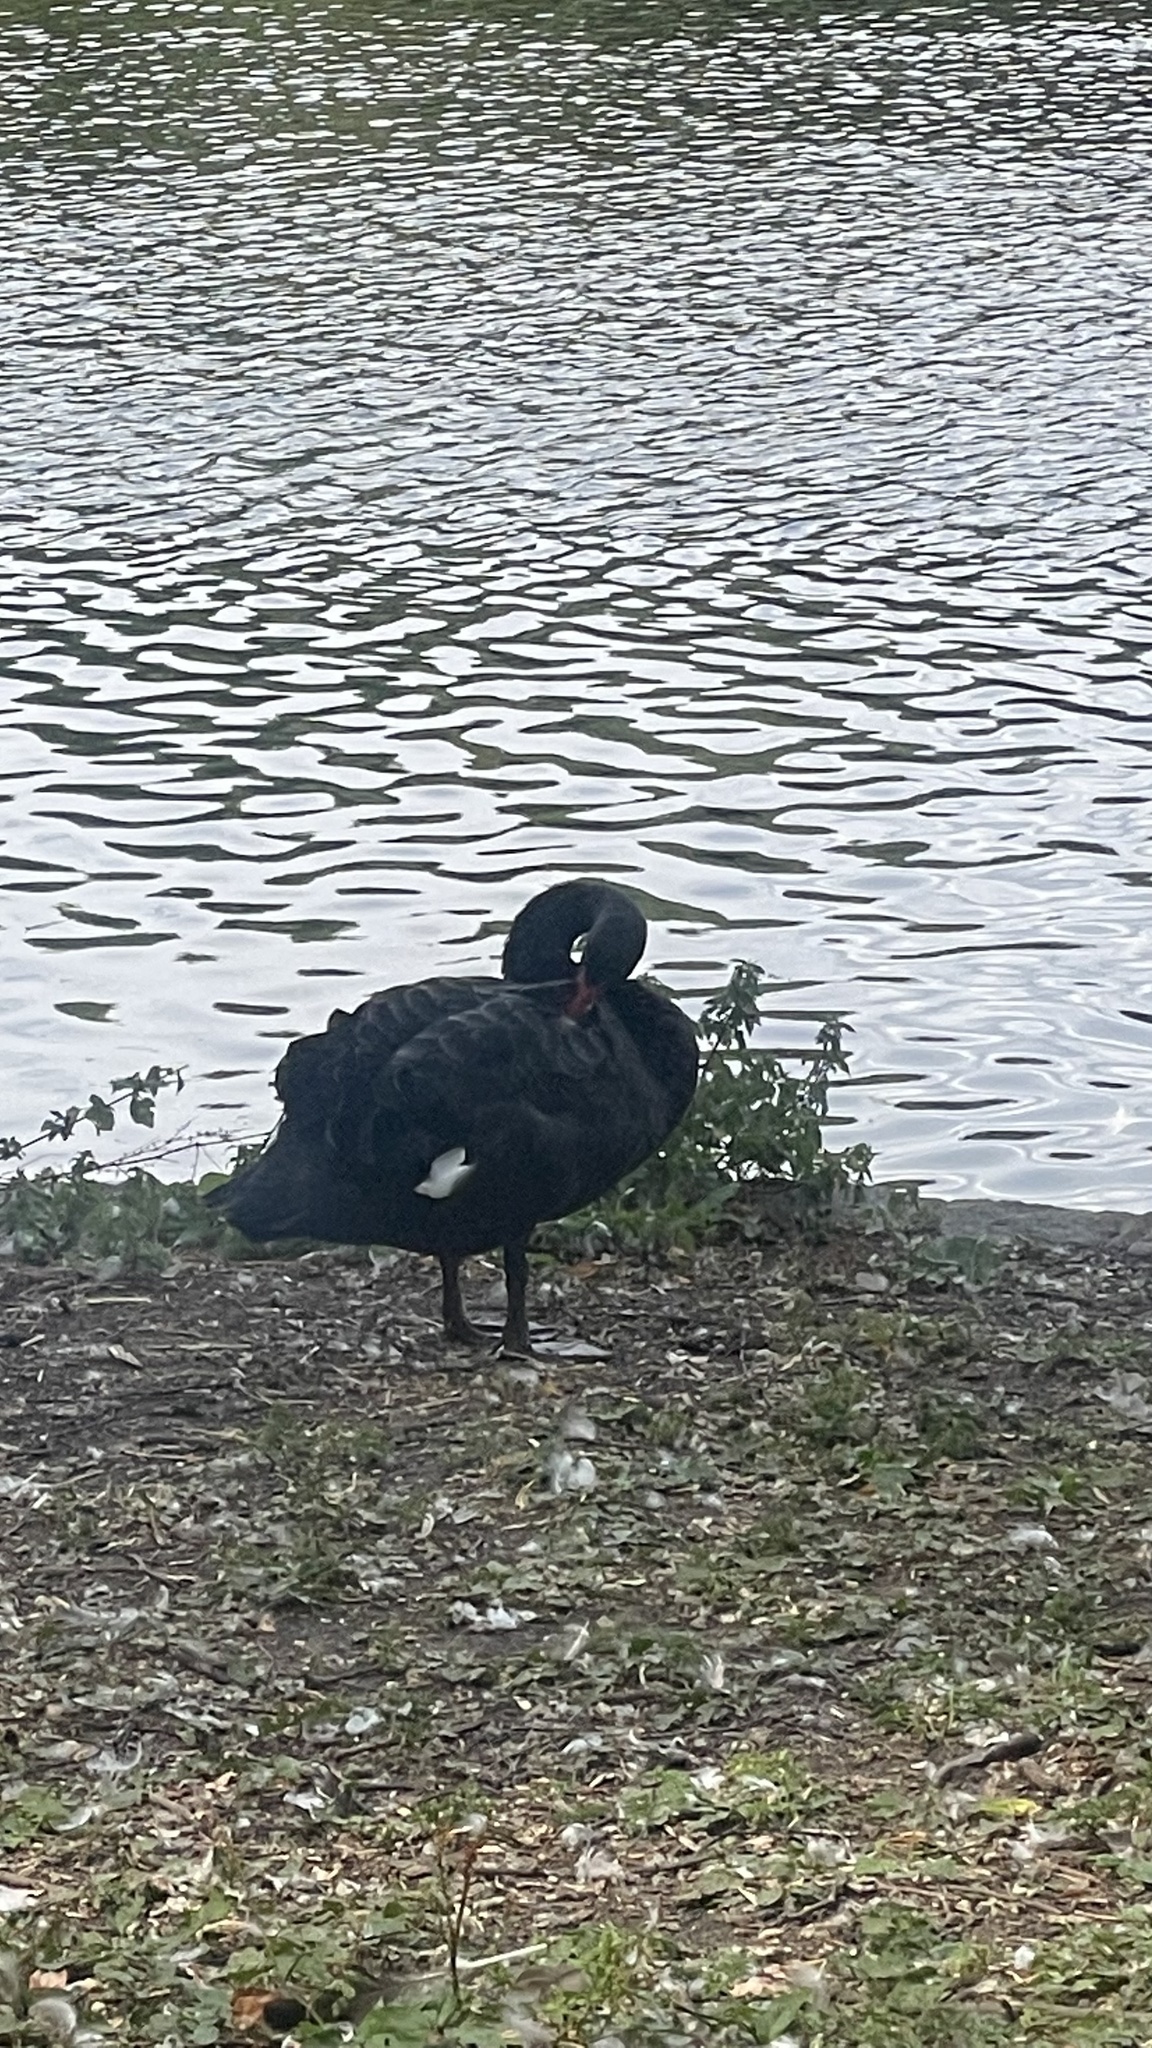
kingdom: Animalia
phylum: Chordata
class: Aves
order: Anseriformes
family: Anatidae
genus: Cygnus
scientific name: Cygnus atratus
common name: Black swan
